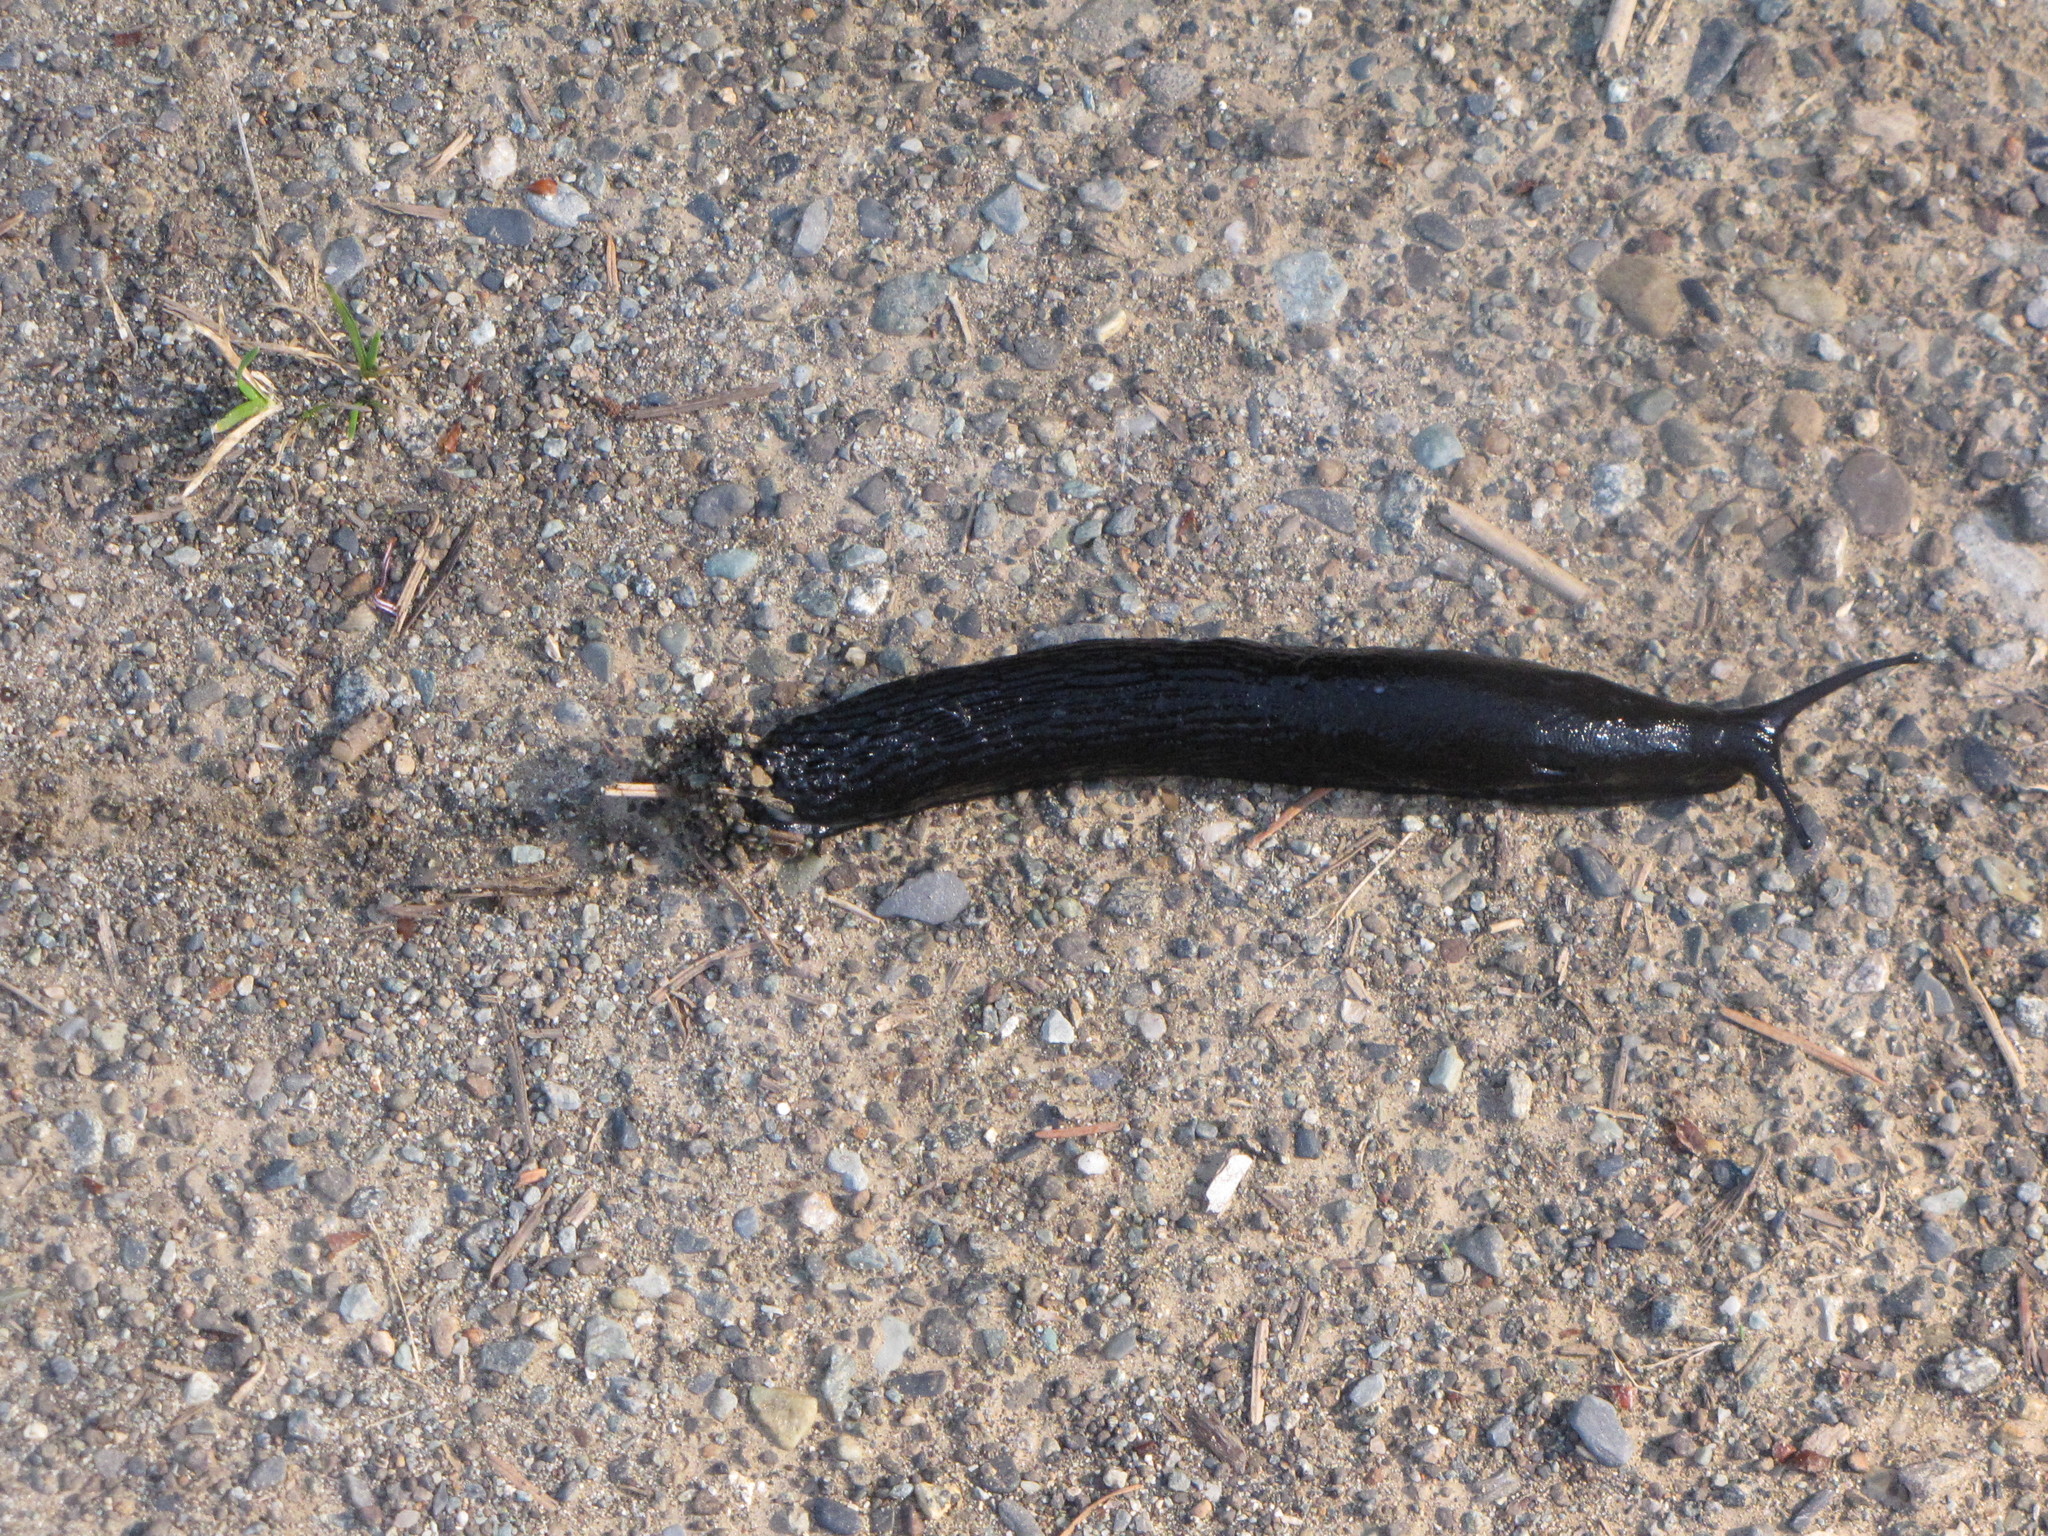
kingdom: Animalia
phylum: Mollusca
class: Gastropoda
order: Stylommatophora
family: Arionidae
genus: Arion
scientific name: Arion rufus
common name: Chocolate arion
